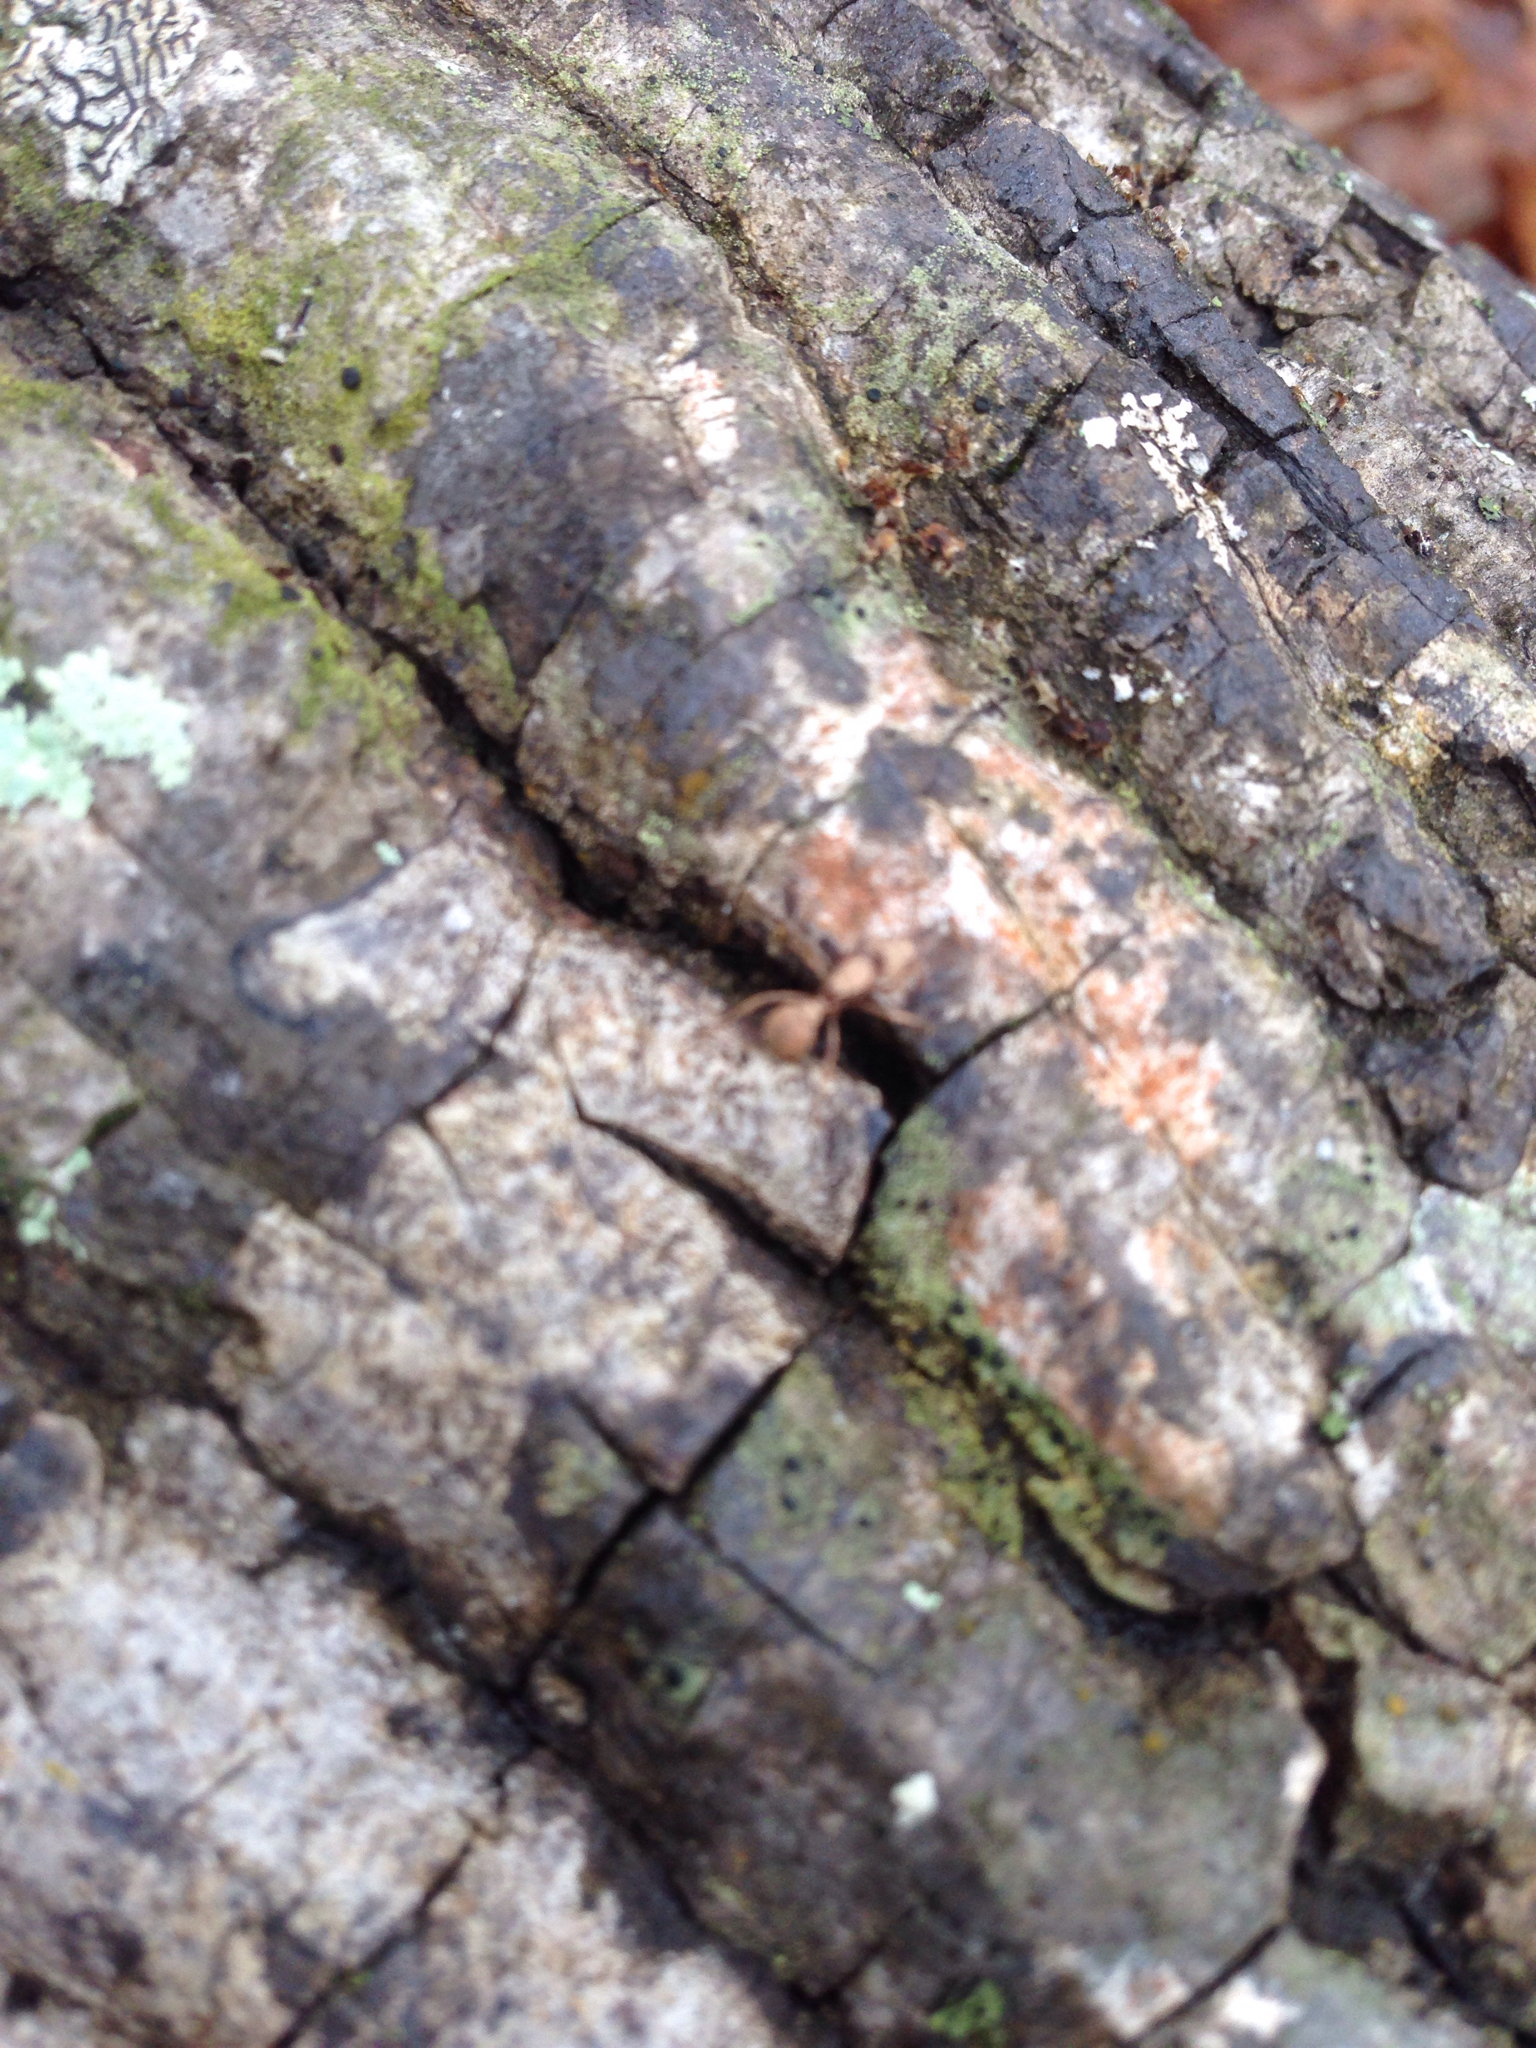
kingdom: Animalia
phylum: Arthropoda
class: Insecta
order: Hymenoptera
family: Formicidae
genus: Trachymyrmex
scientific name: Trachymyrmex septentrionalis
